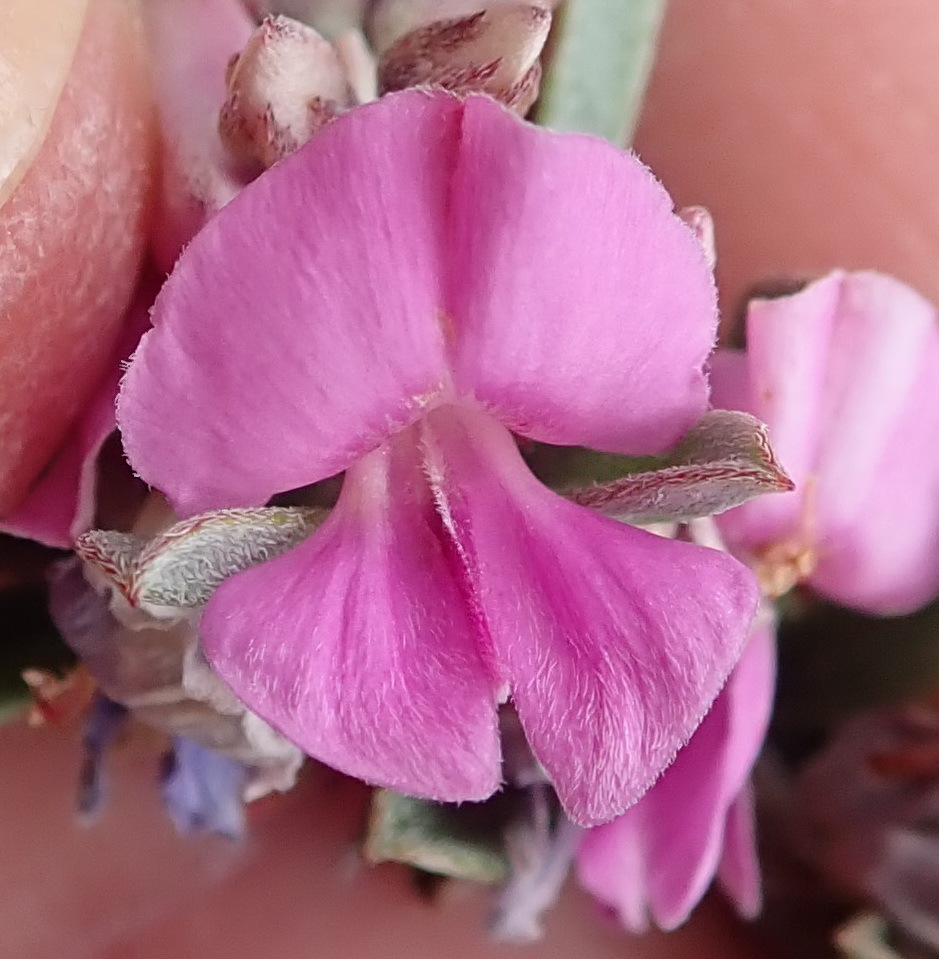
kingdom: Plantae
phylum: Tracheophyta
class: Magnoliopsida
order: Fabales
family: Fabaceae
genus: Indigofera
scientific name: Indigofera flabellata
